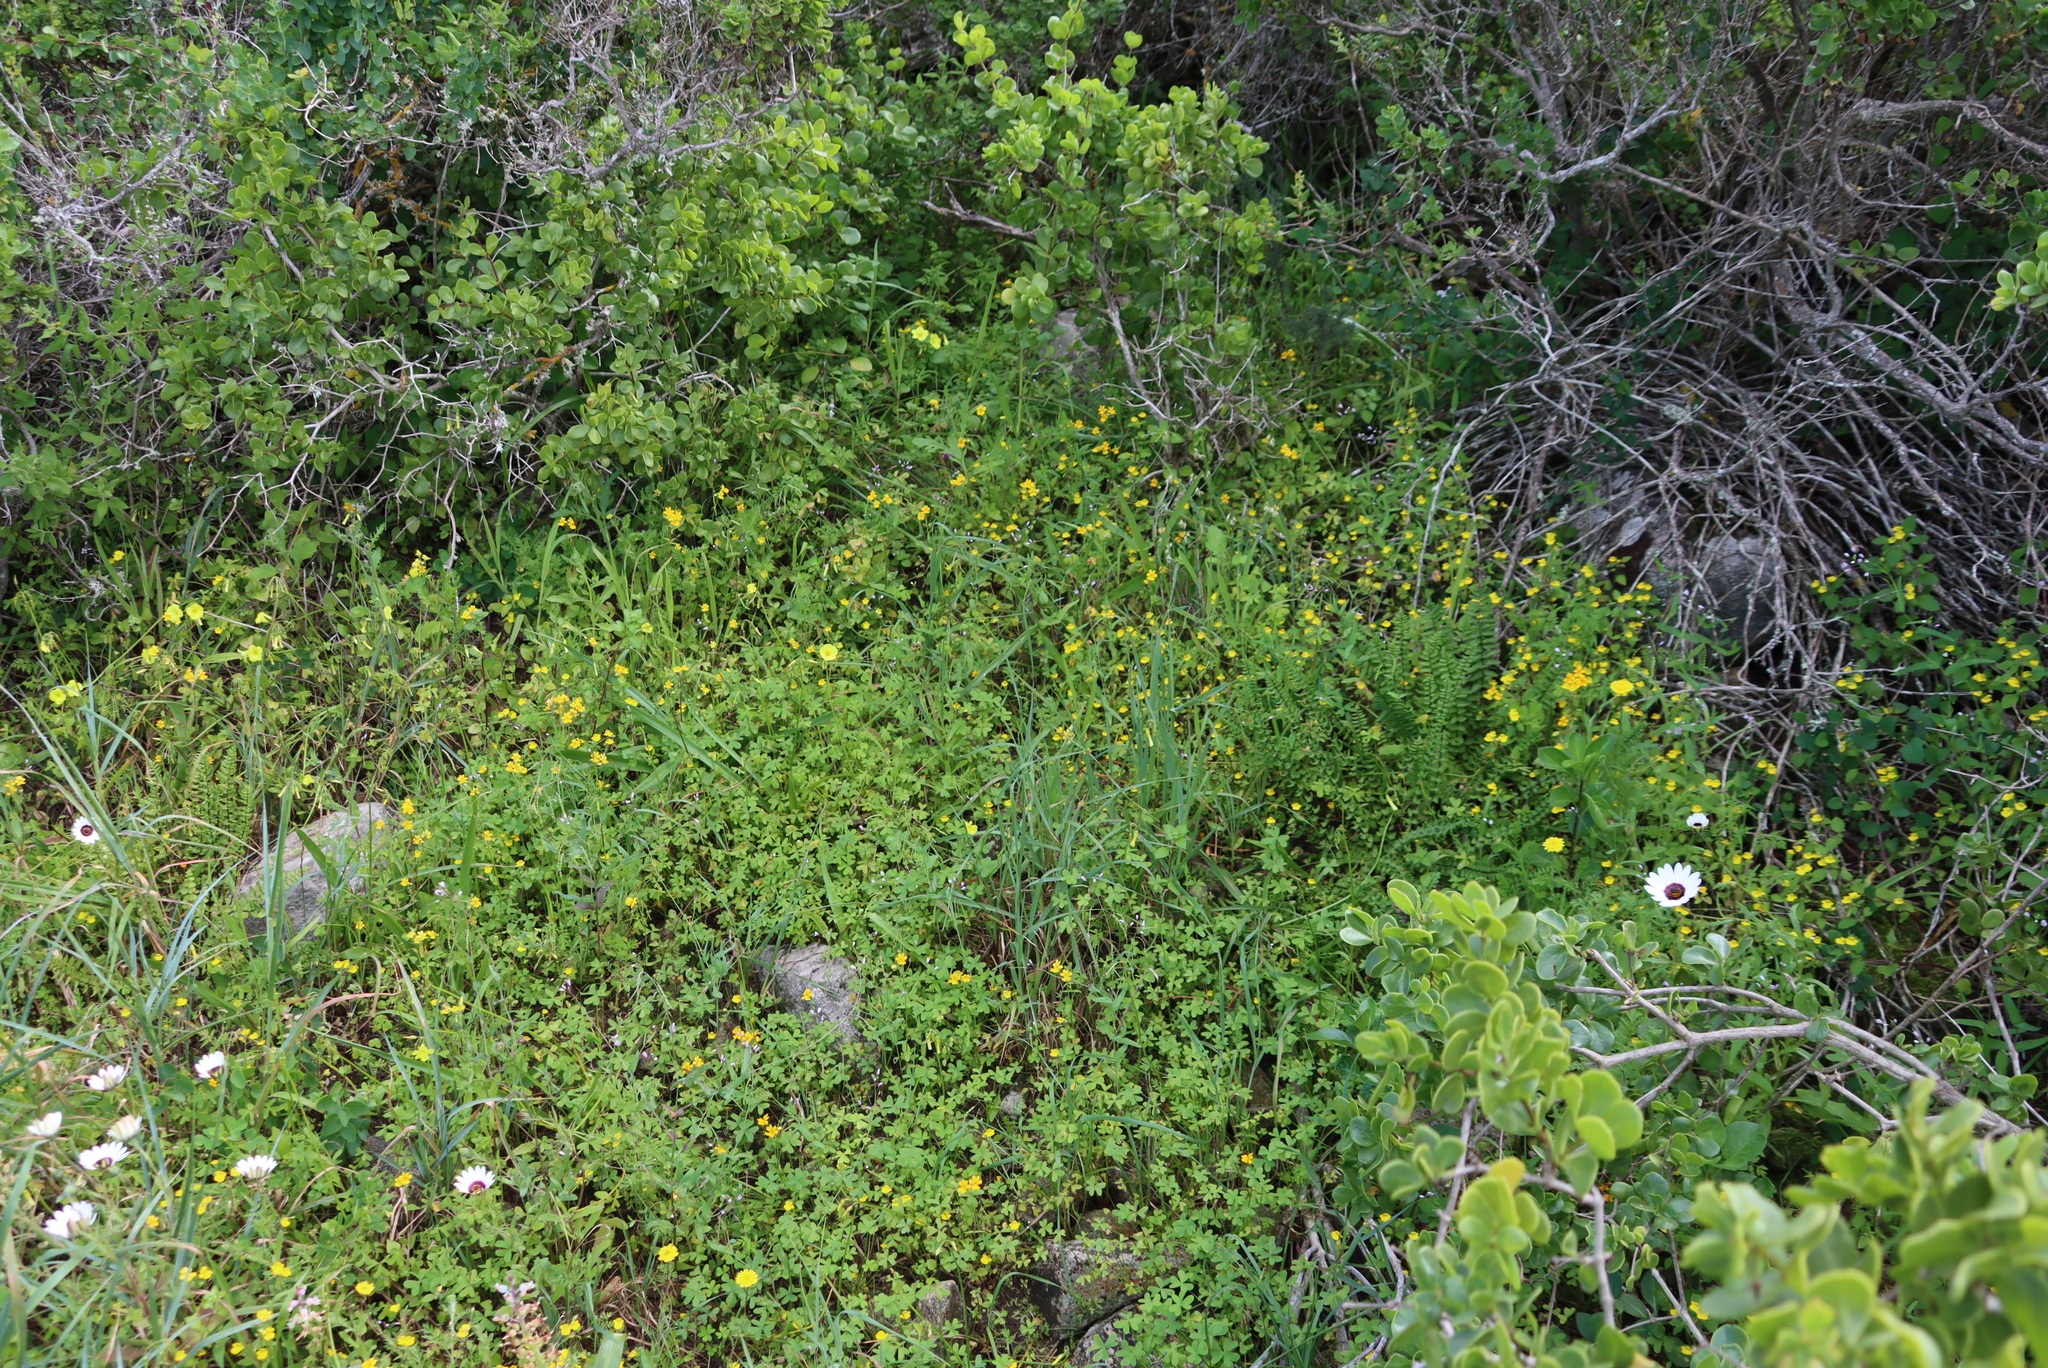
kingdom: Plantae
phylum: Tracheophyta
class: Polypodiopsida
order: Polypodiales
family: Pteridaceae
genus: Cheilanthes
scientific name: Cheilanthes hastata
